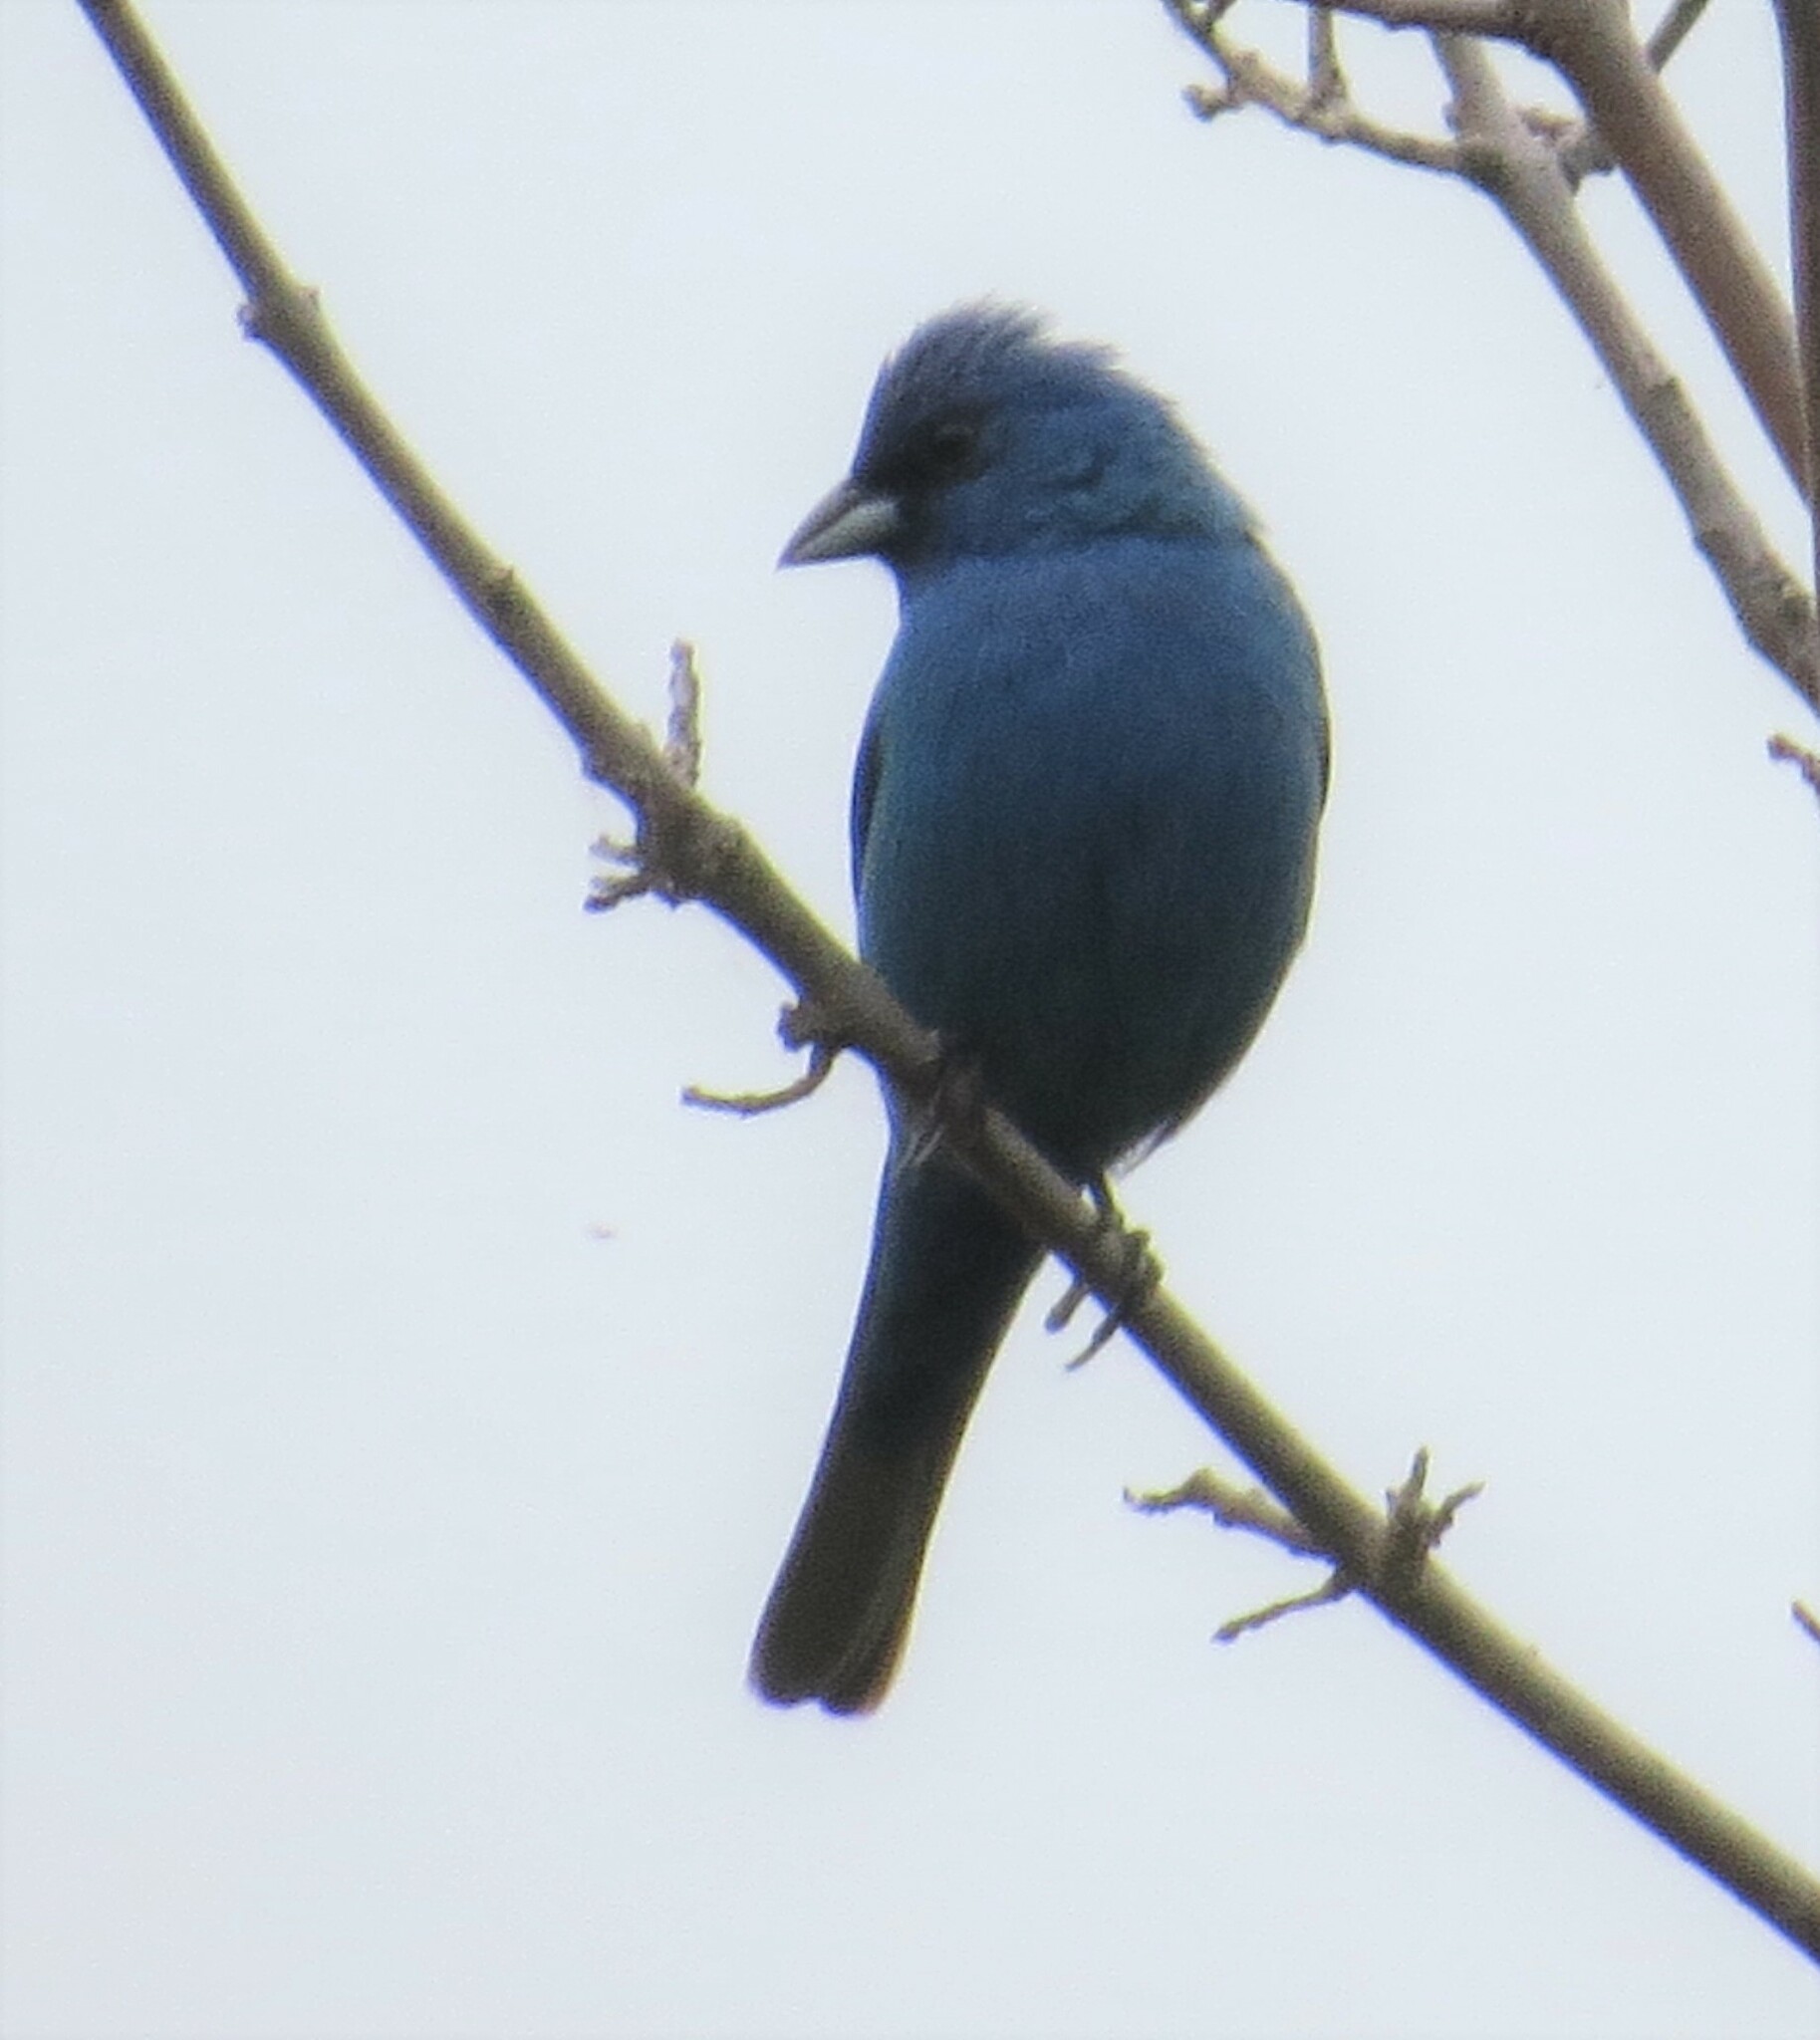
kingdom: Animalia
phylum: Chordata
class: Aves
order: Passeriformes
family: Cardinalidae
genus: Passerina
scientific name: Passerina cyanea
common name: Indigo bunting
